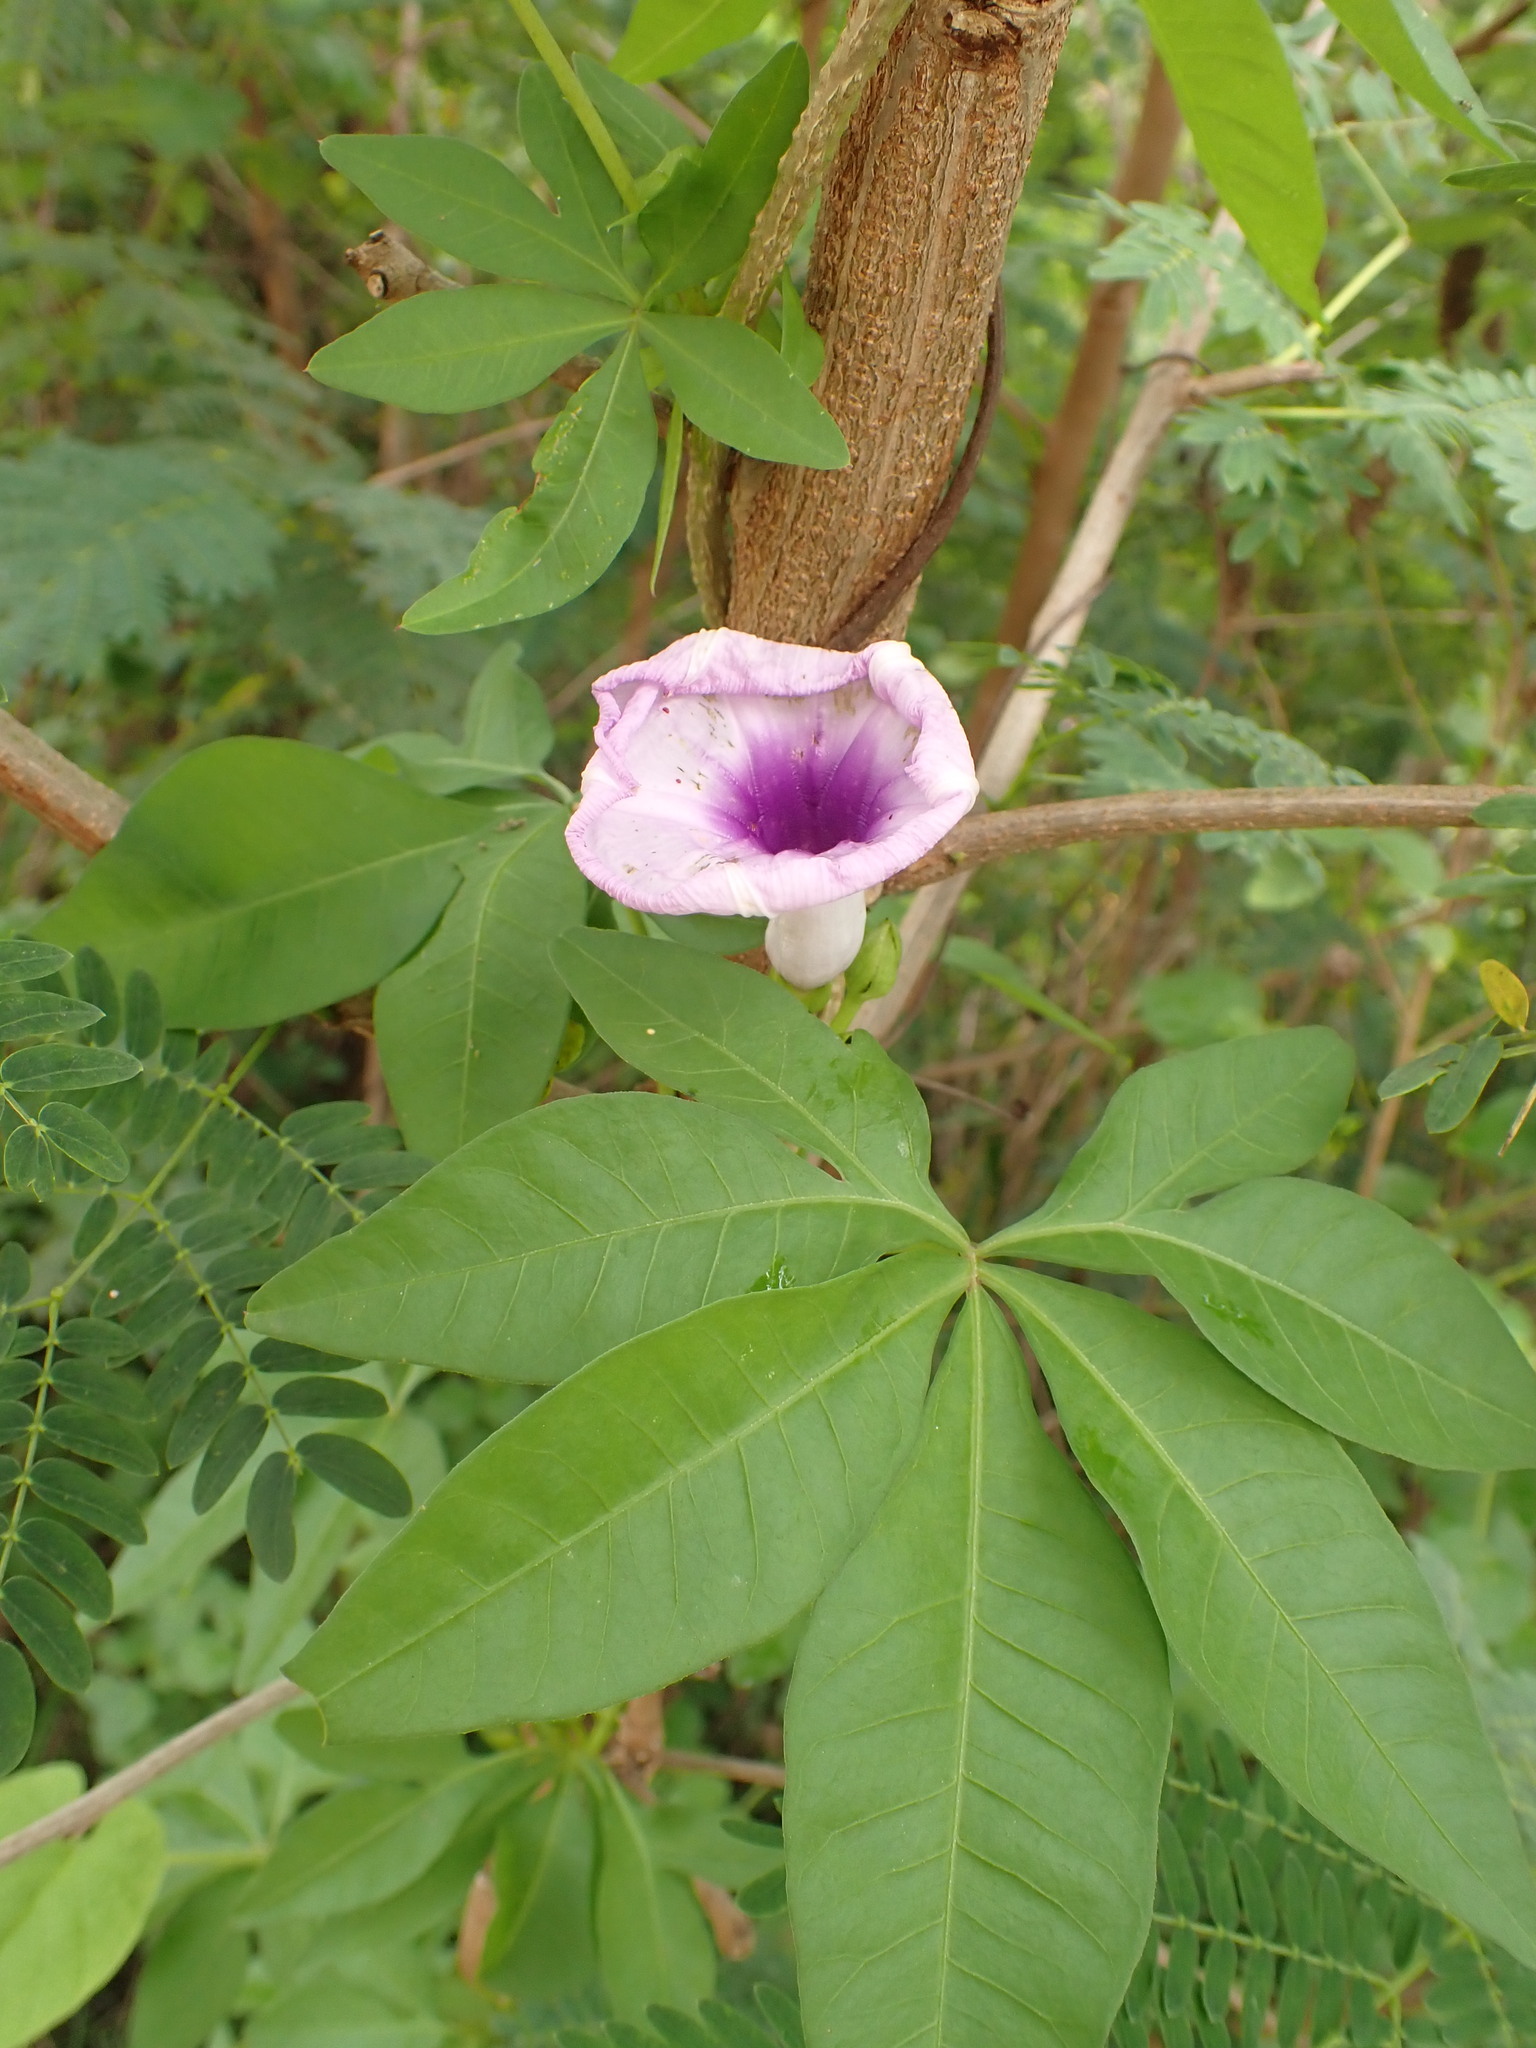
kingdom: Plantae
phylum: Tracheophyta
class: Magnoliopsida
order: Solanales
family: Convolvulaceae
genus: Ipomoea
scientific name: Ipomoea cairica
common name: Mile a minute vine
